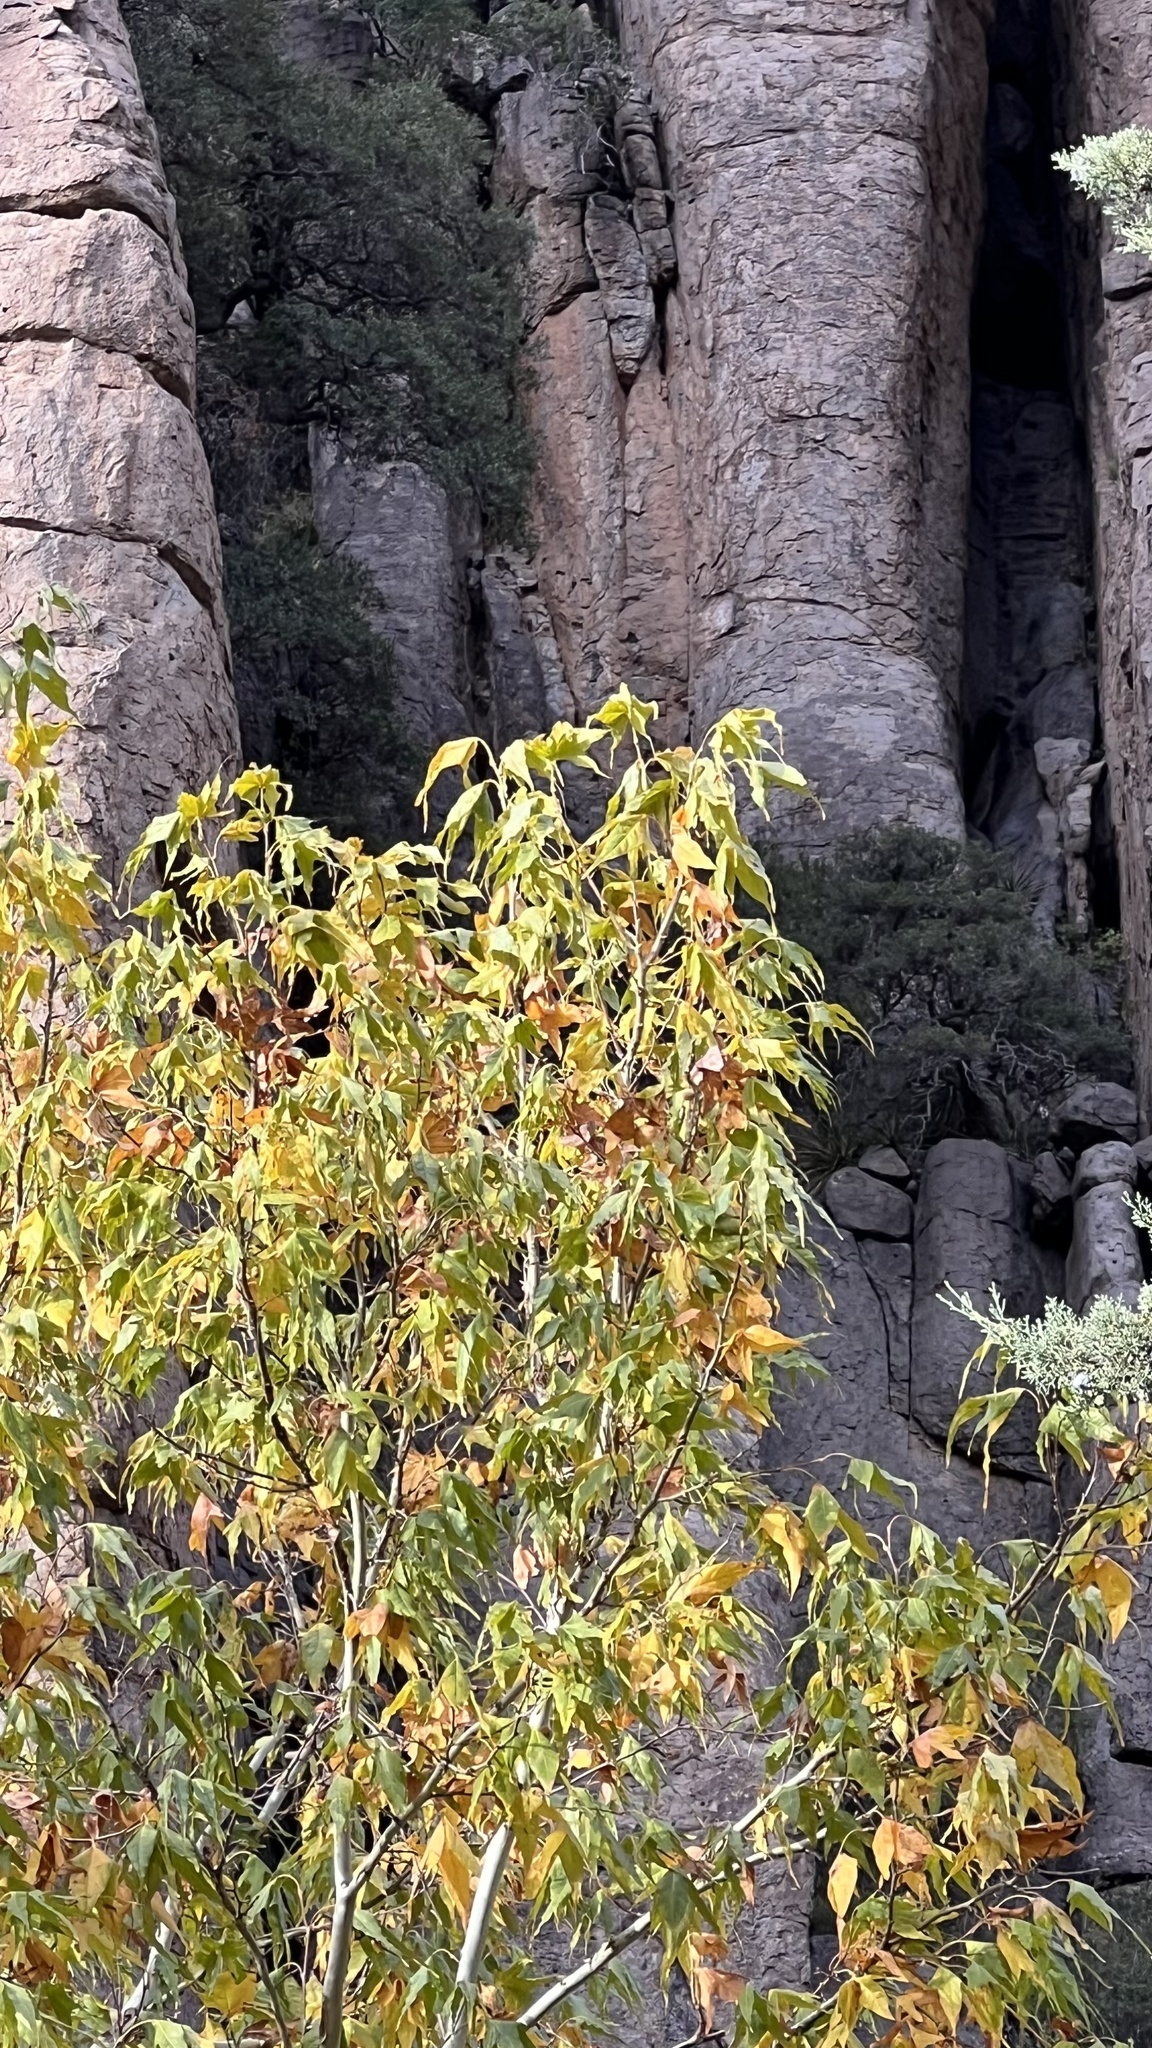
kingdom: Plantae
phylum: Tracheophyta
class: Magnoliopsida
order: Proteales
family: Platanaceae
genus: Platanus
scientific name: Platanus wrightii
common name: Arizona sycamore
